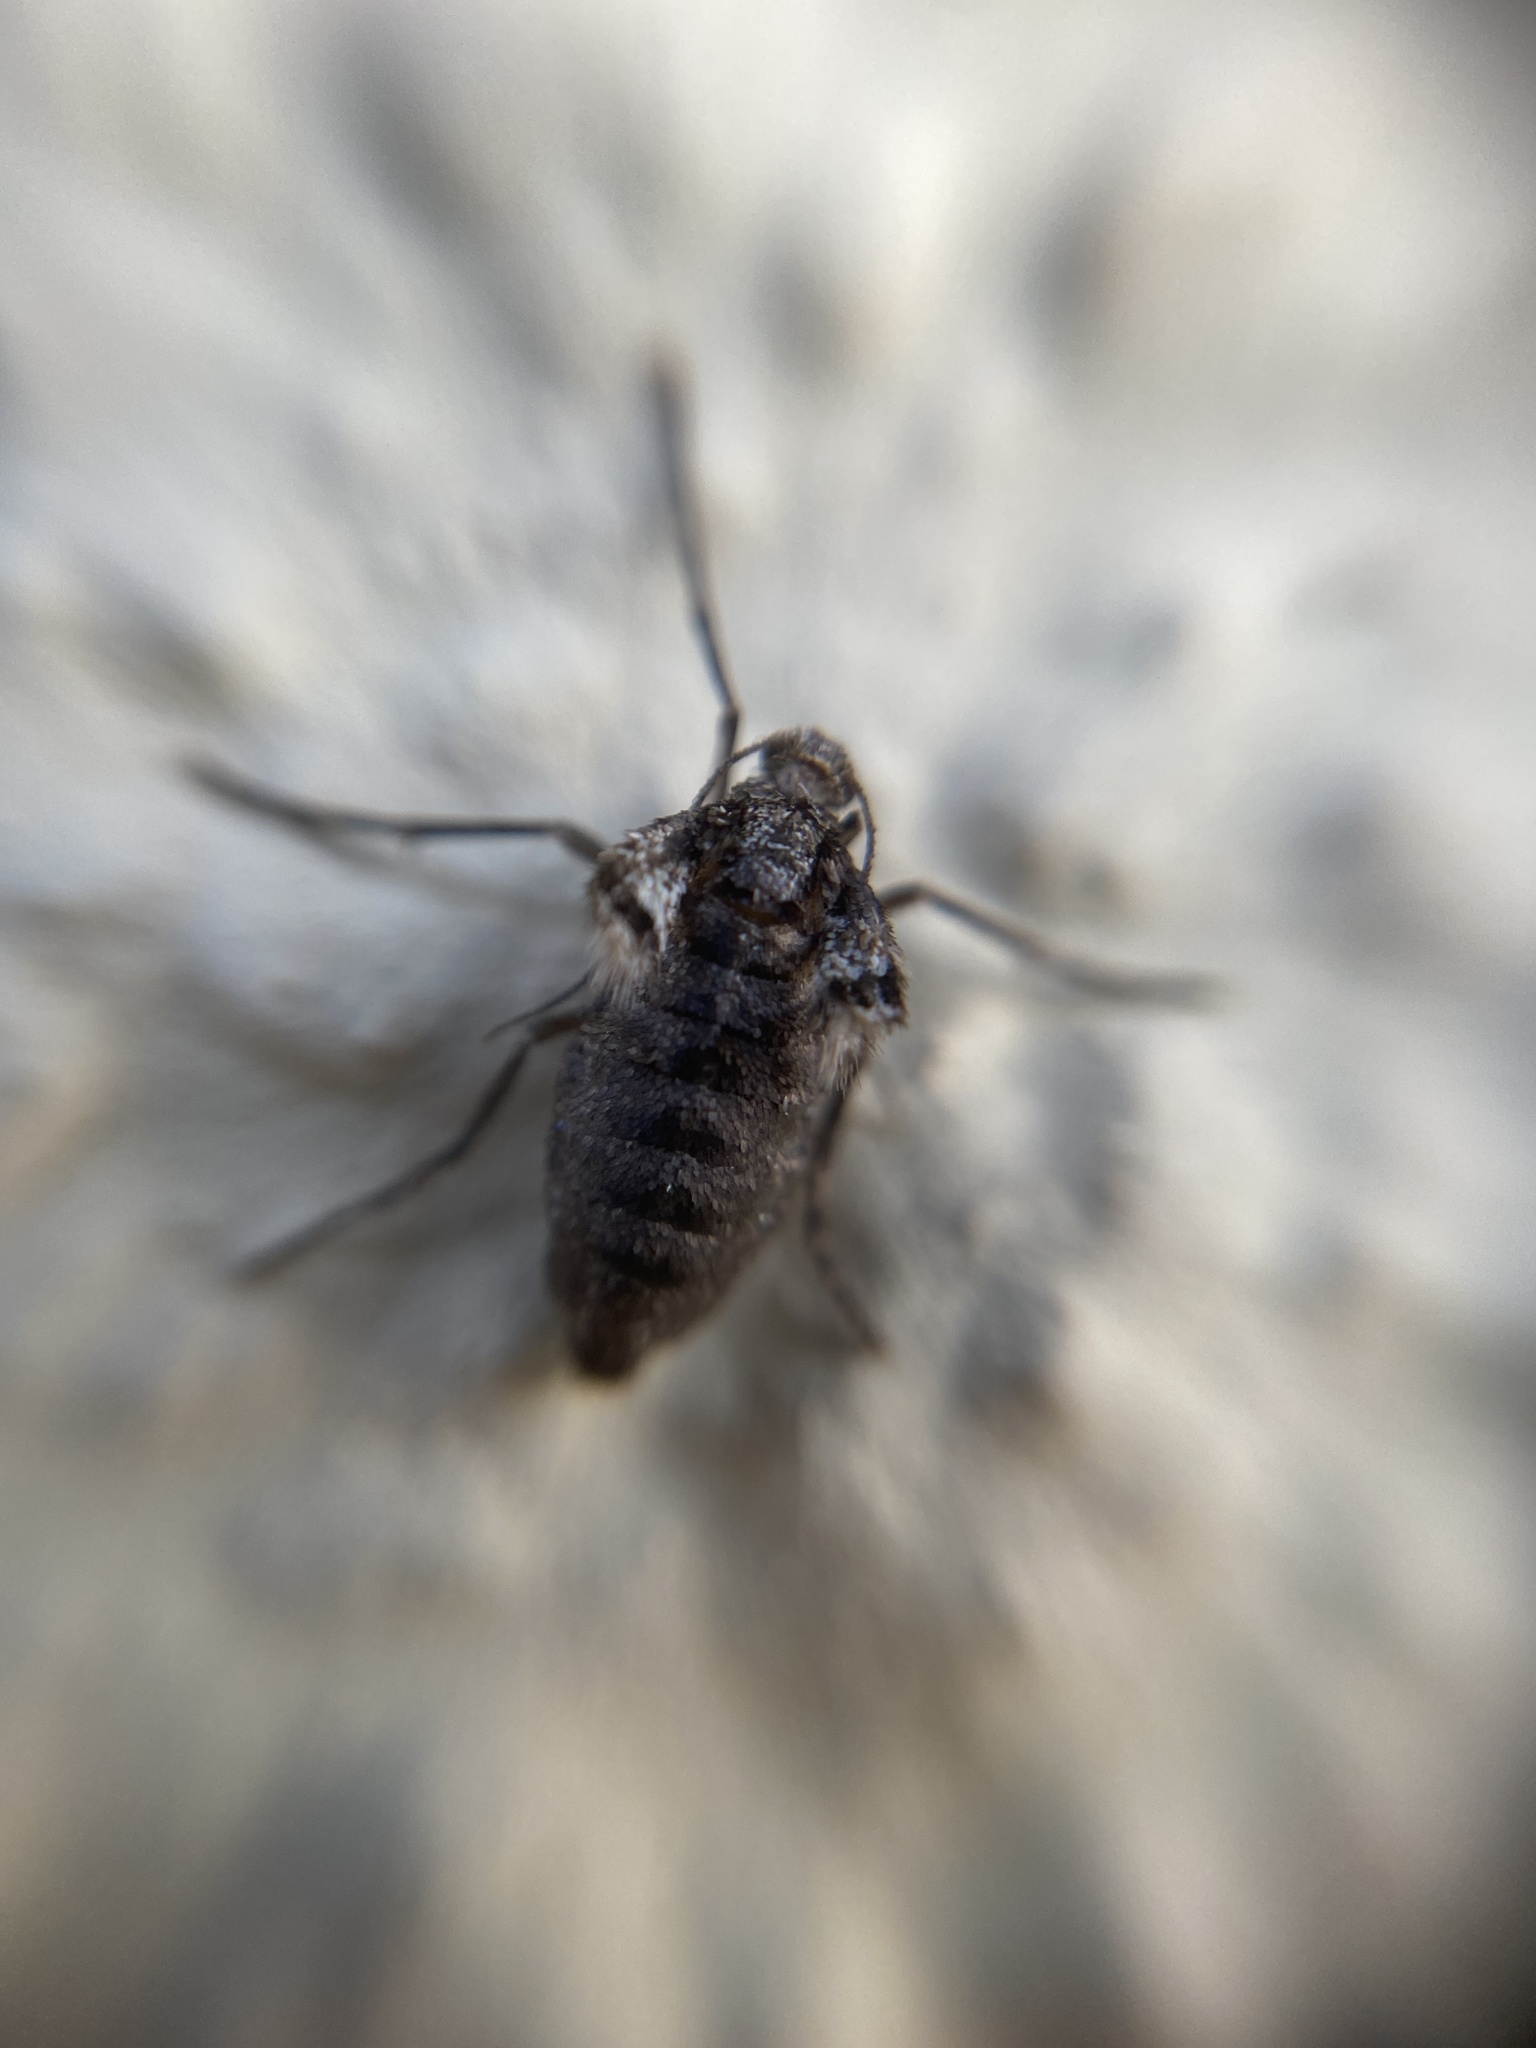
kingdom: Animalia
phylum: Arthropoda
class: Insecta
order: Lepidoptera
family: Geometridae
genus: Operophtera
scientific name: Operophtera brumata
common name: Winter moth
